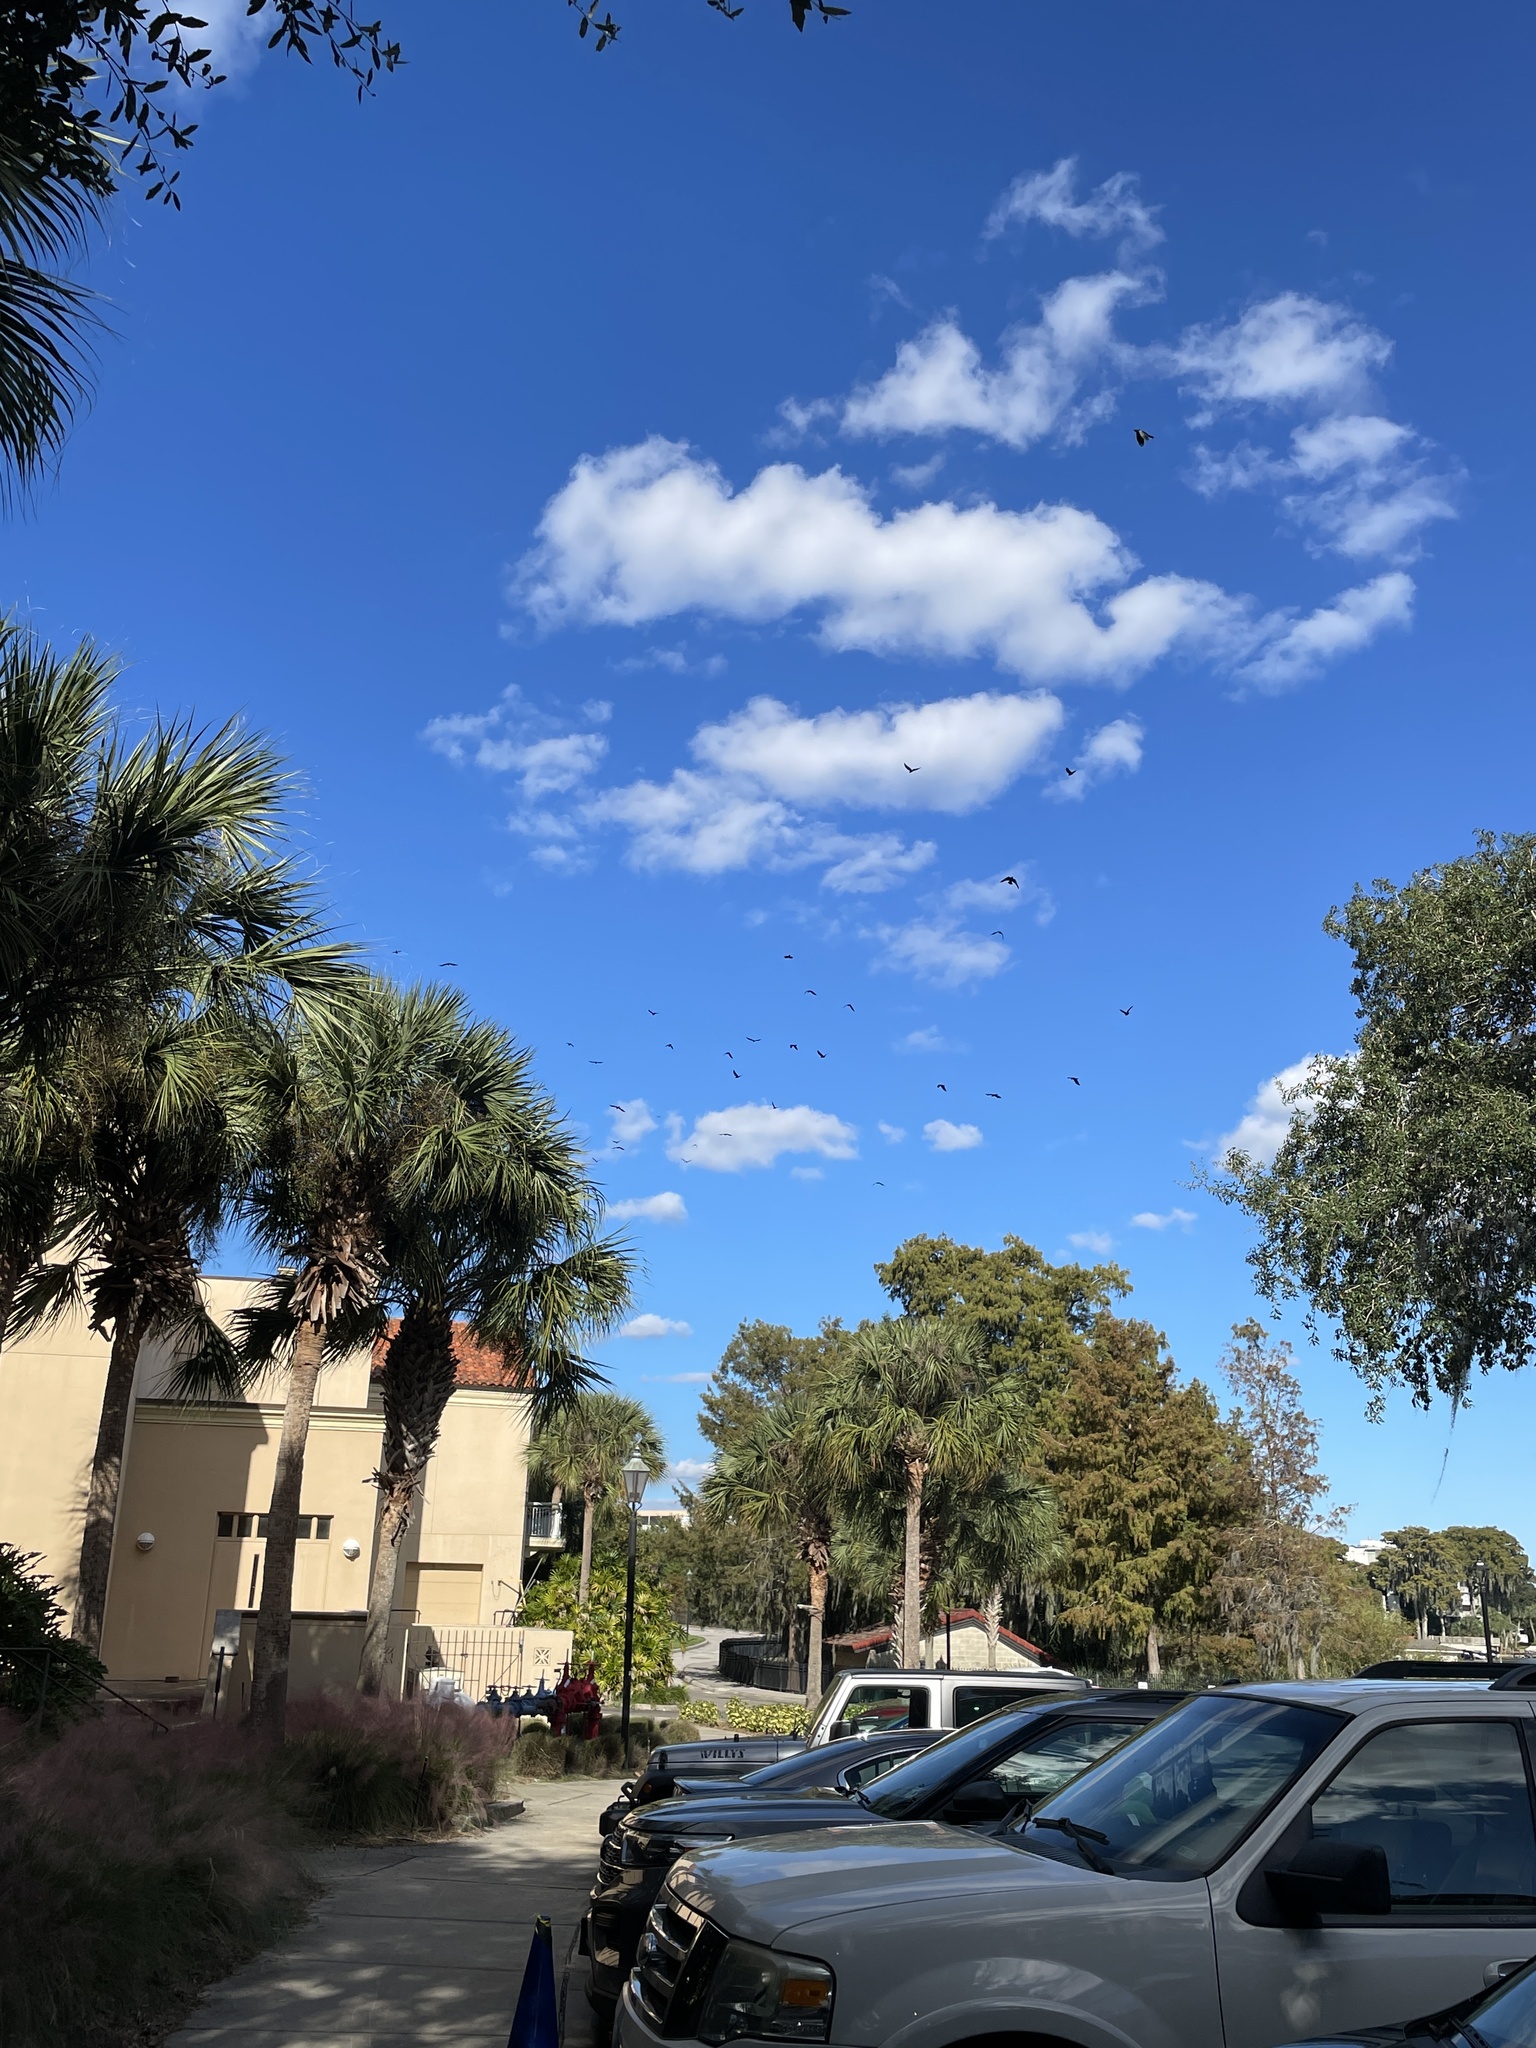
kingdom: Animalia
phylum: Chordata
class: Aves
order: Passeriformes
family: Corvidae
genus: Corvus
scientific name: Corvus ossifragus
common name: Fish crow
